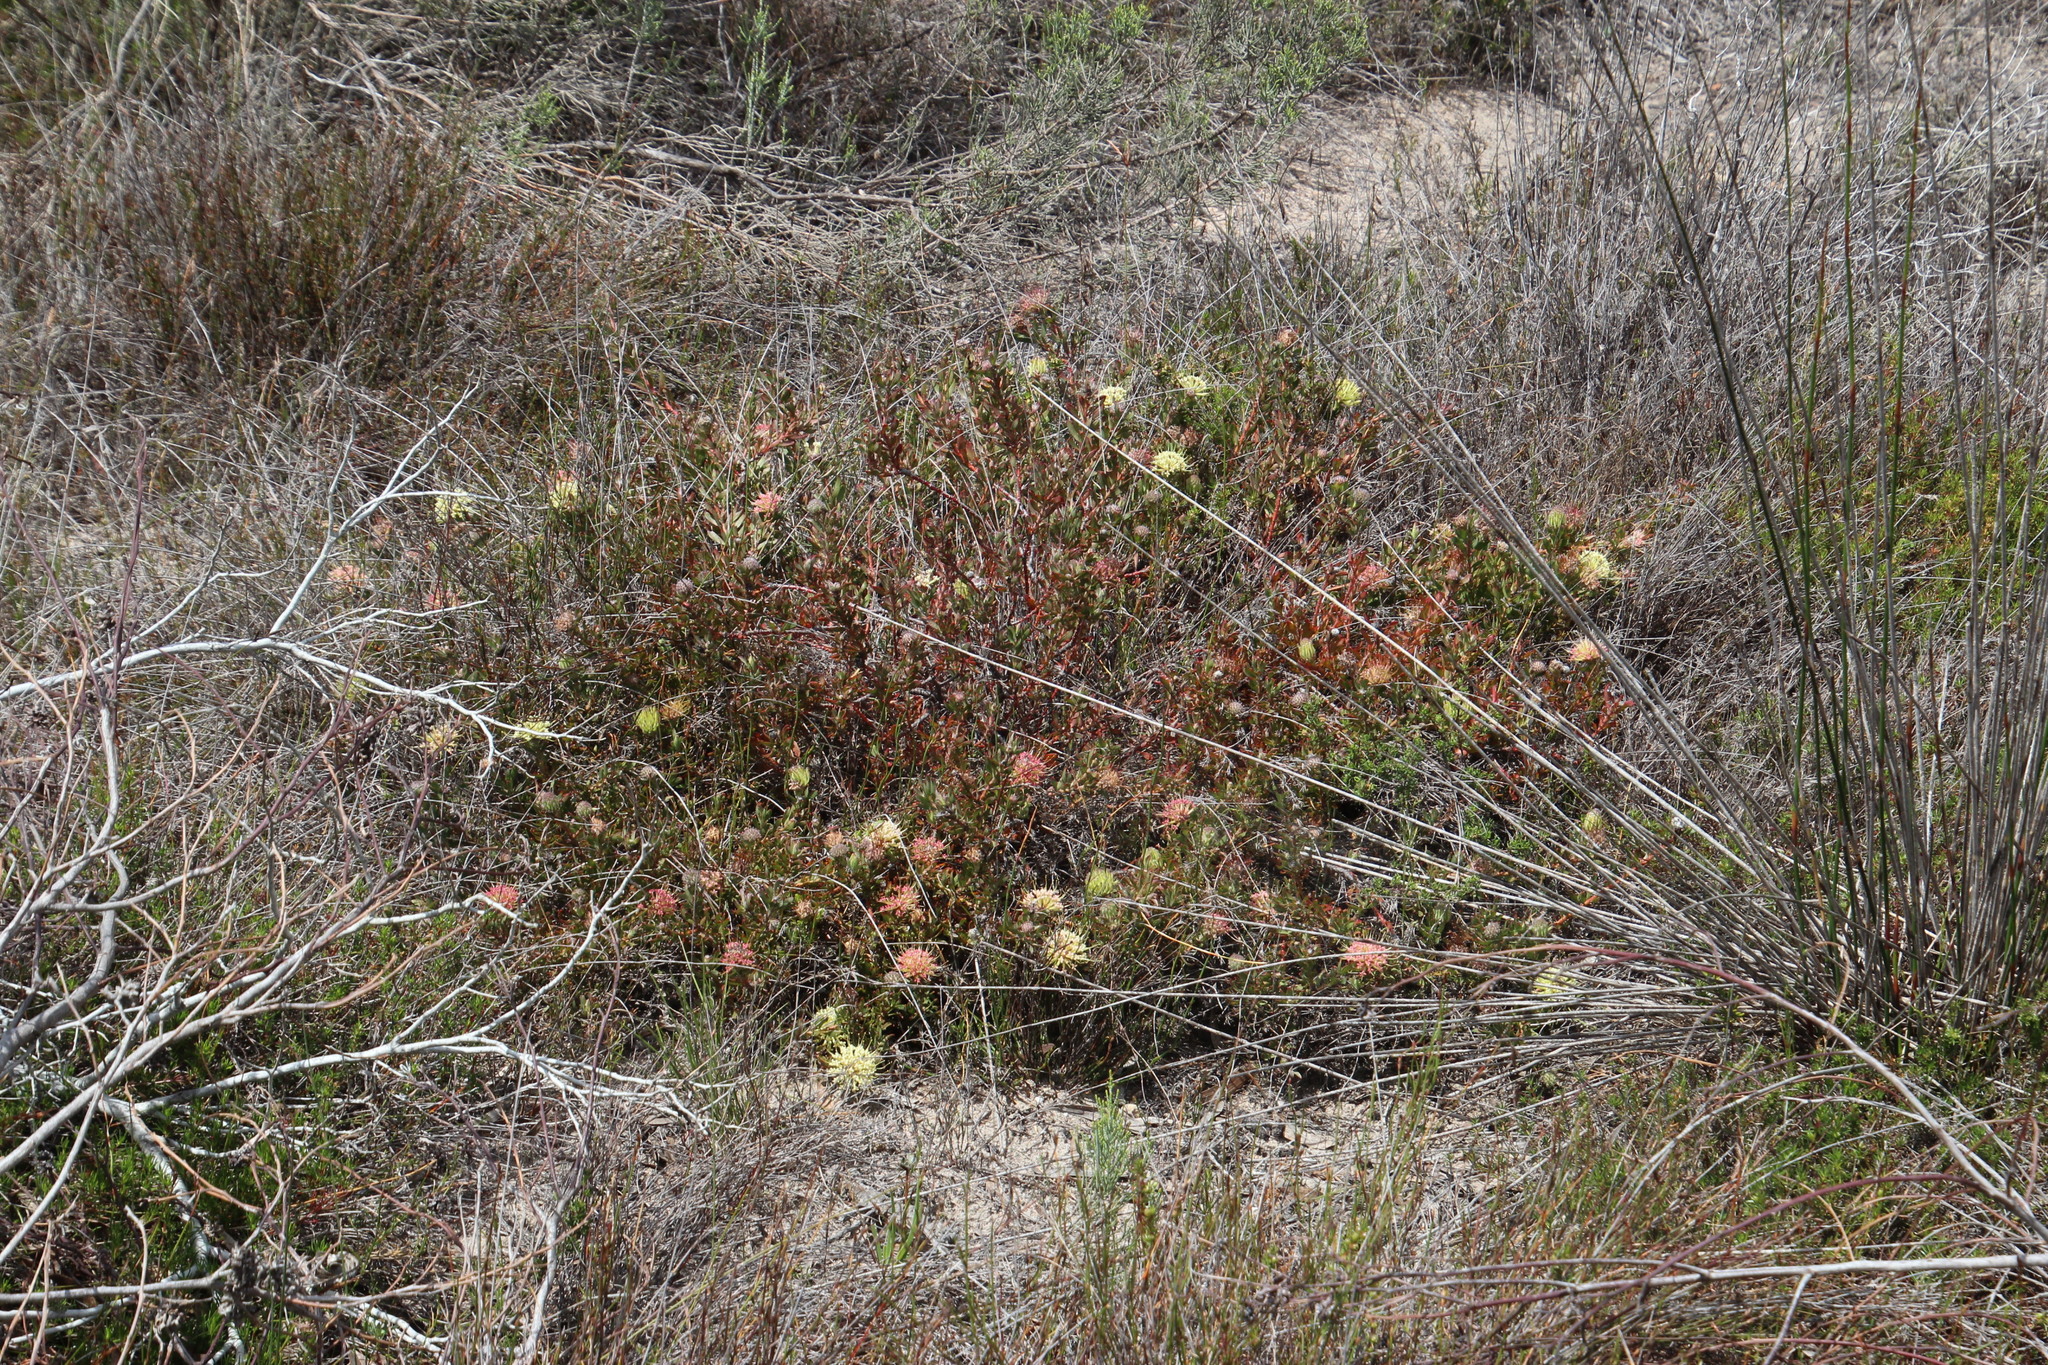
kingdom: Plantae
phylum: Tracheophyta
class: Magnoliopsida
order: Proteales
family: Proteaceae
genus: Leucospermum
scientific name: Leucospermum heterophyllum
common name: Trident pincushion
